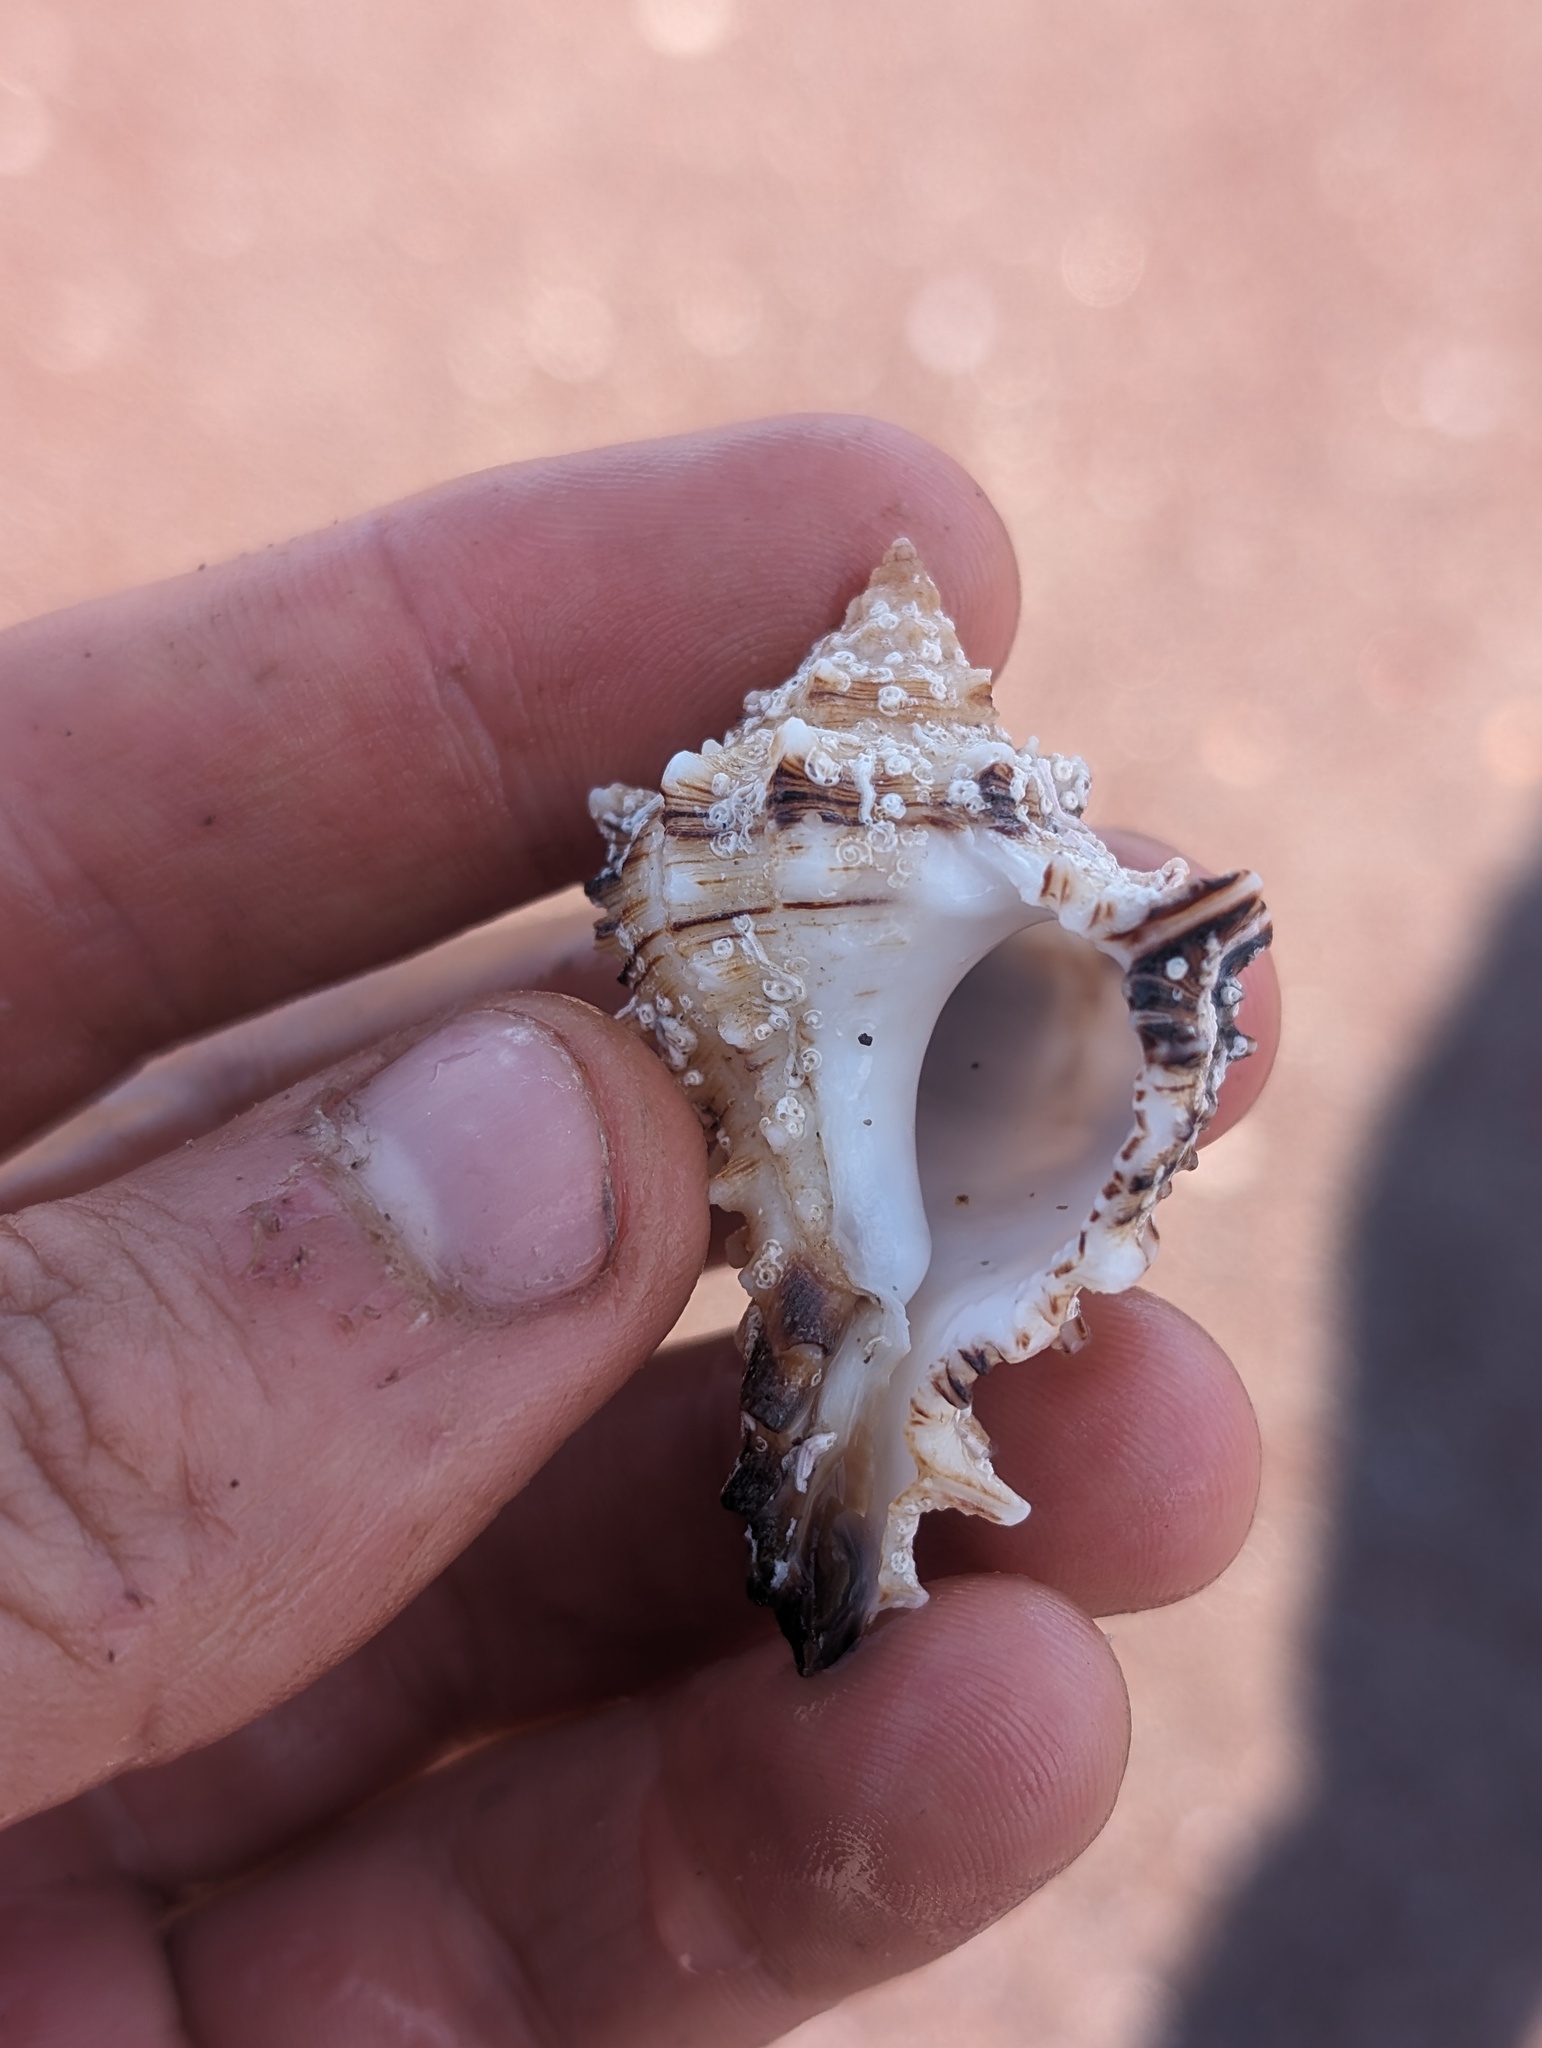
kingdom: Animalia
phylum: Mollusca
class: Gastropoda
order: Neogastropoda
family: Muricidae
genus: Hexaplex
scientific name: Hexaplex princeps
